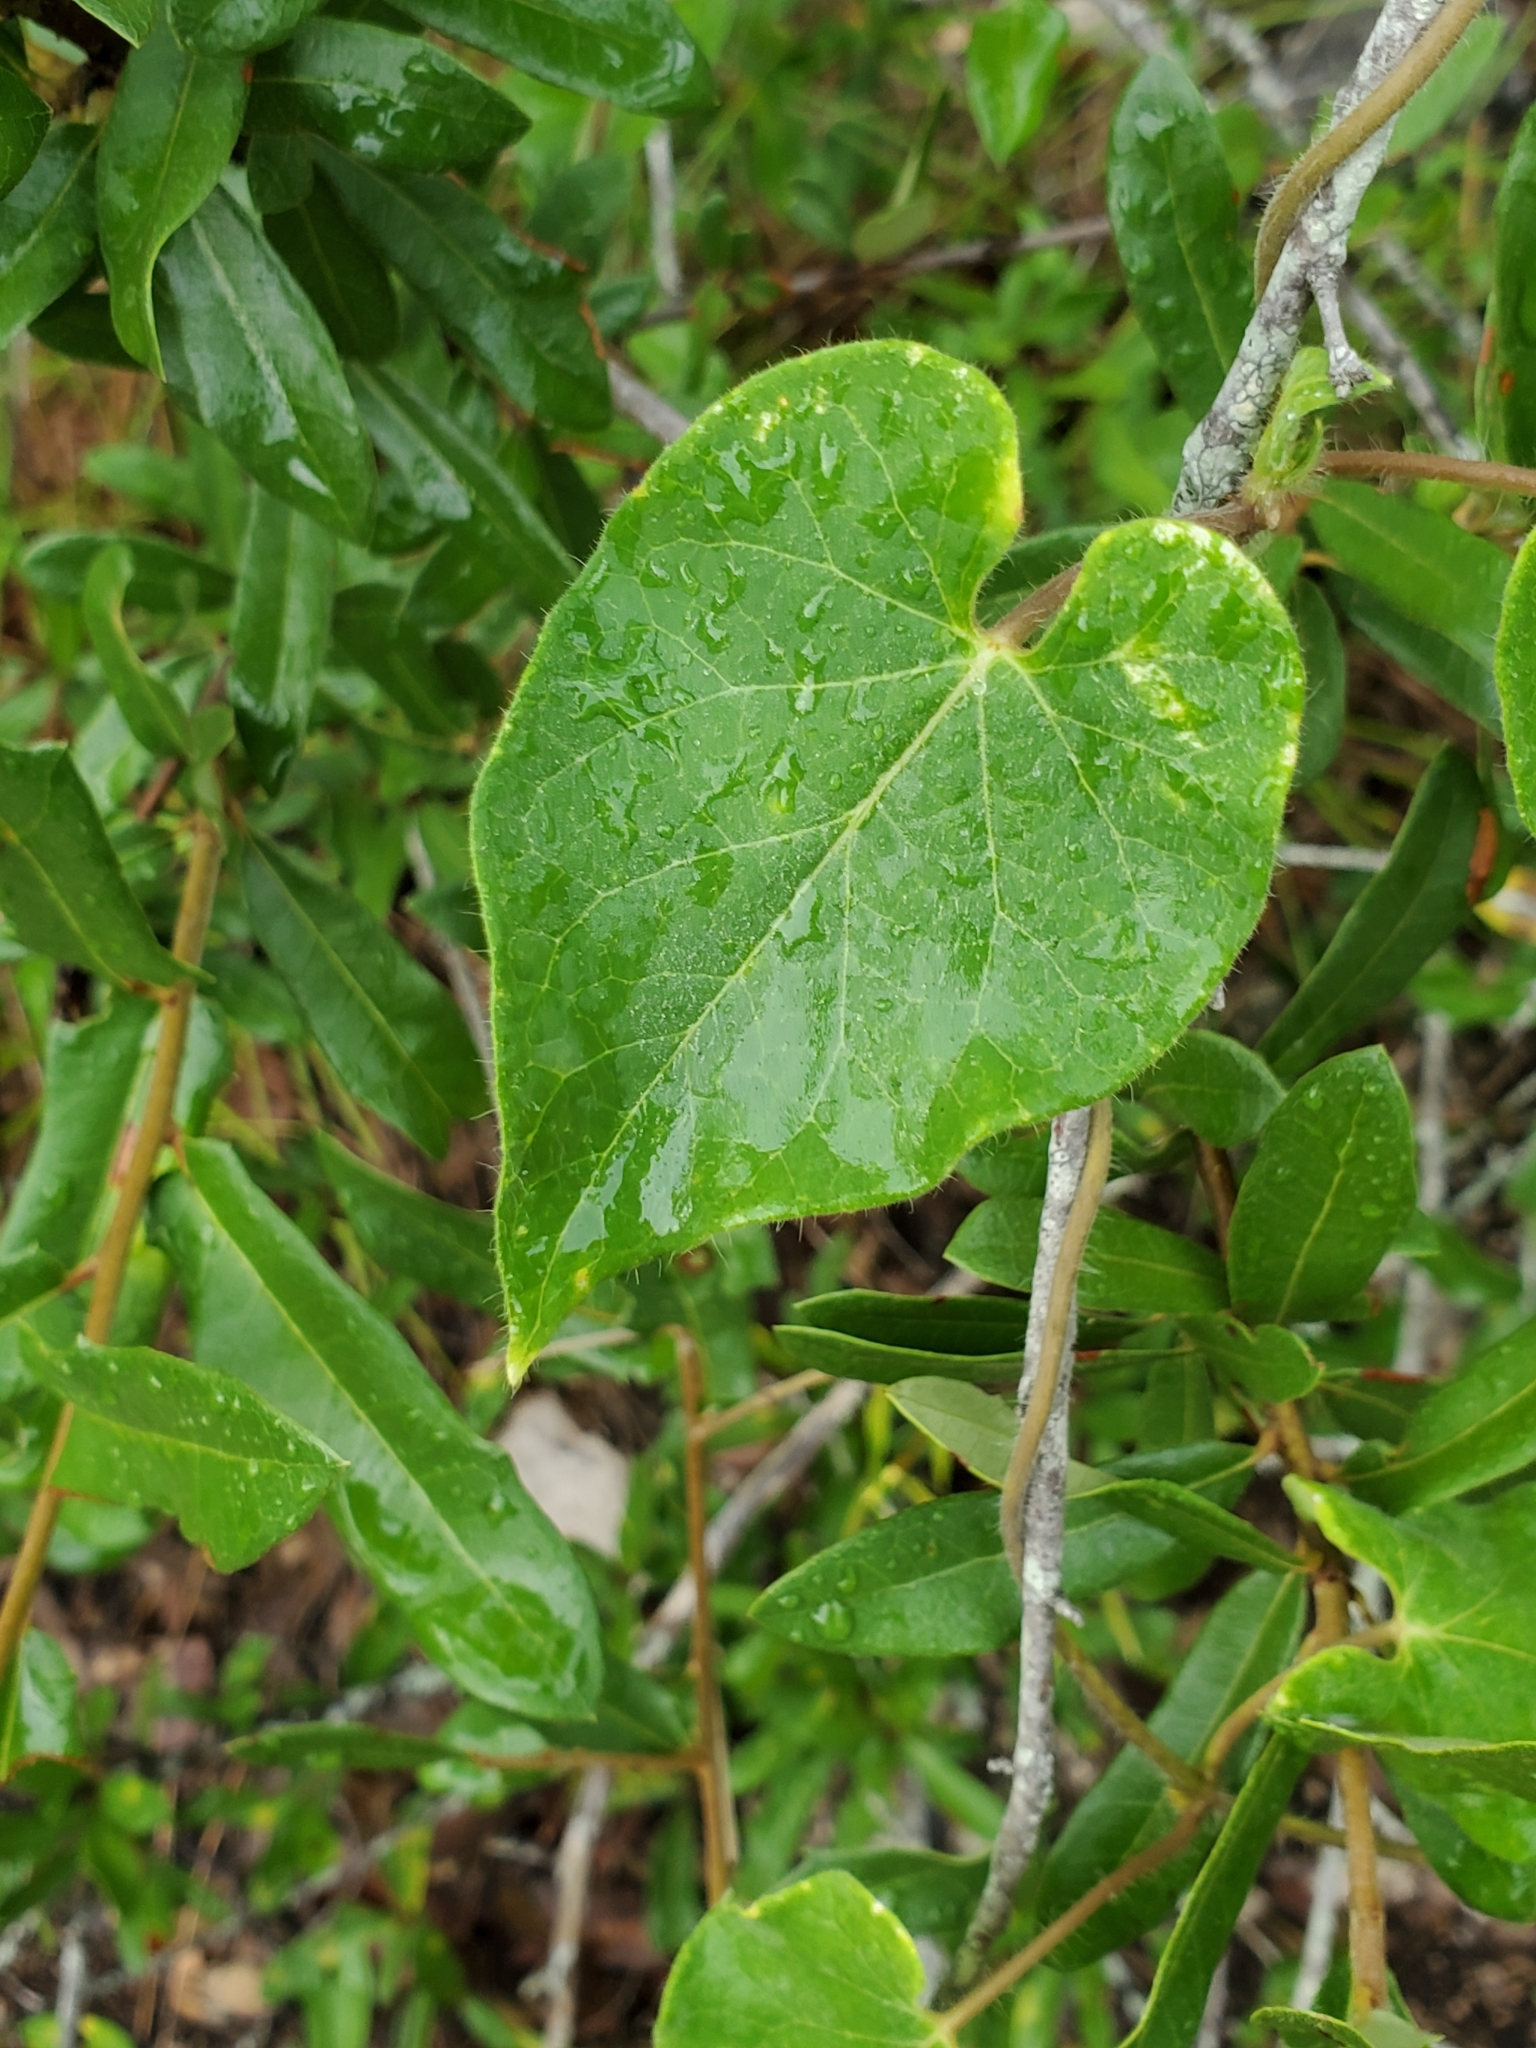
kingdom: Plantae
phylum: Tracheophyta
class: Magnoliopsida
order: Gentianales
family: Apocynaceae
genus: Dictyanthus
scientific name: Dictyanthus reticulatus
